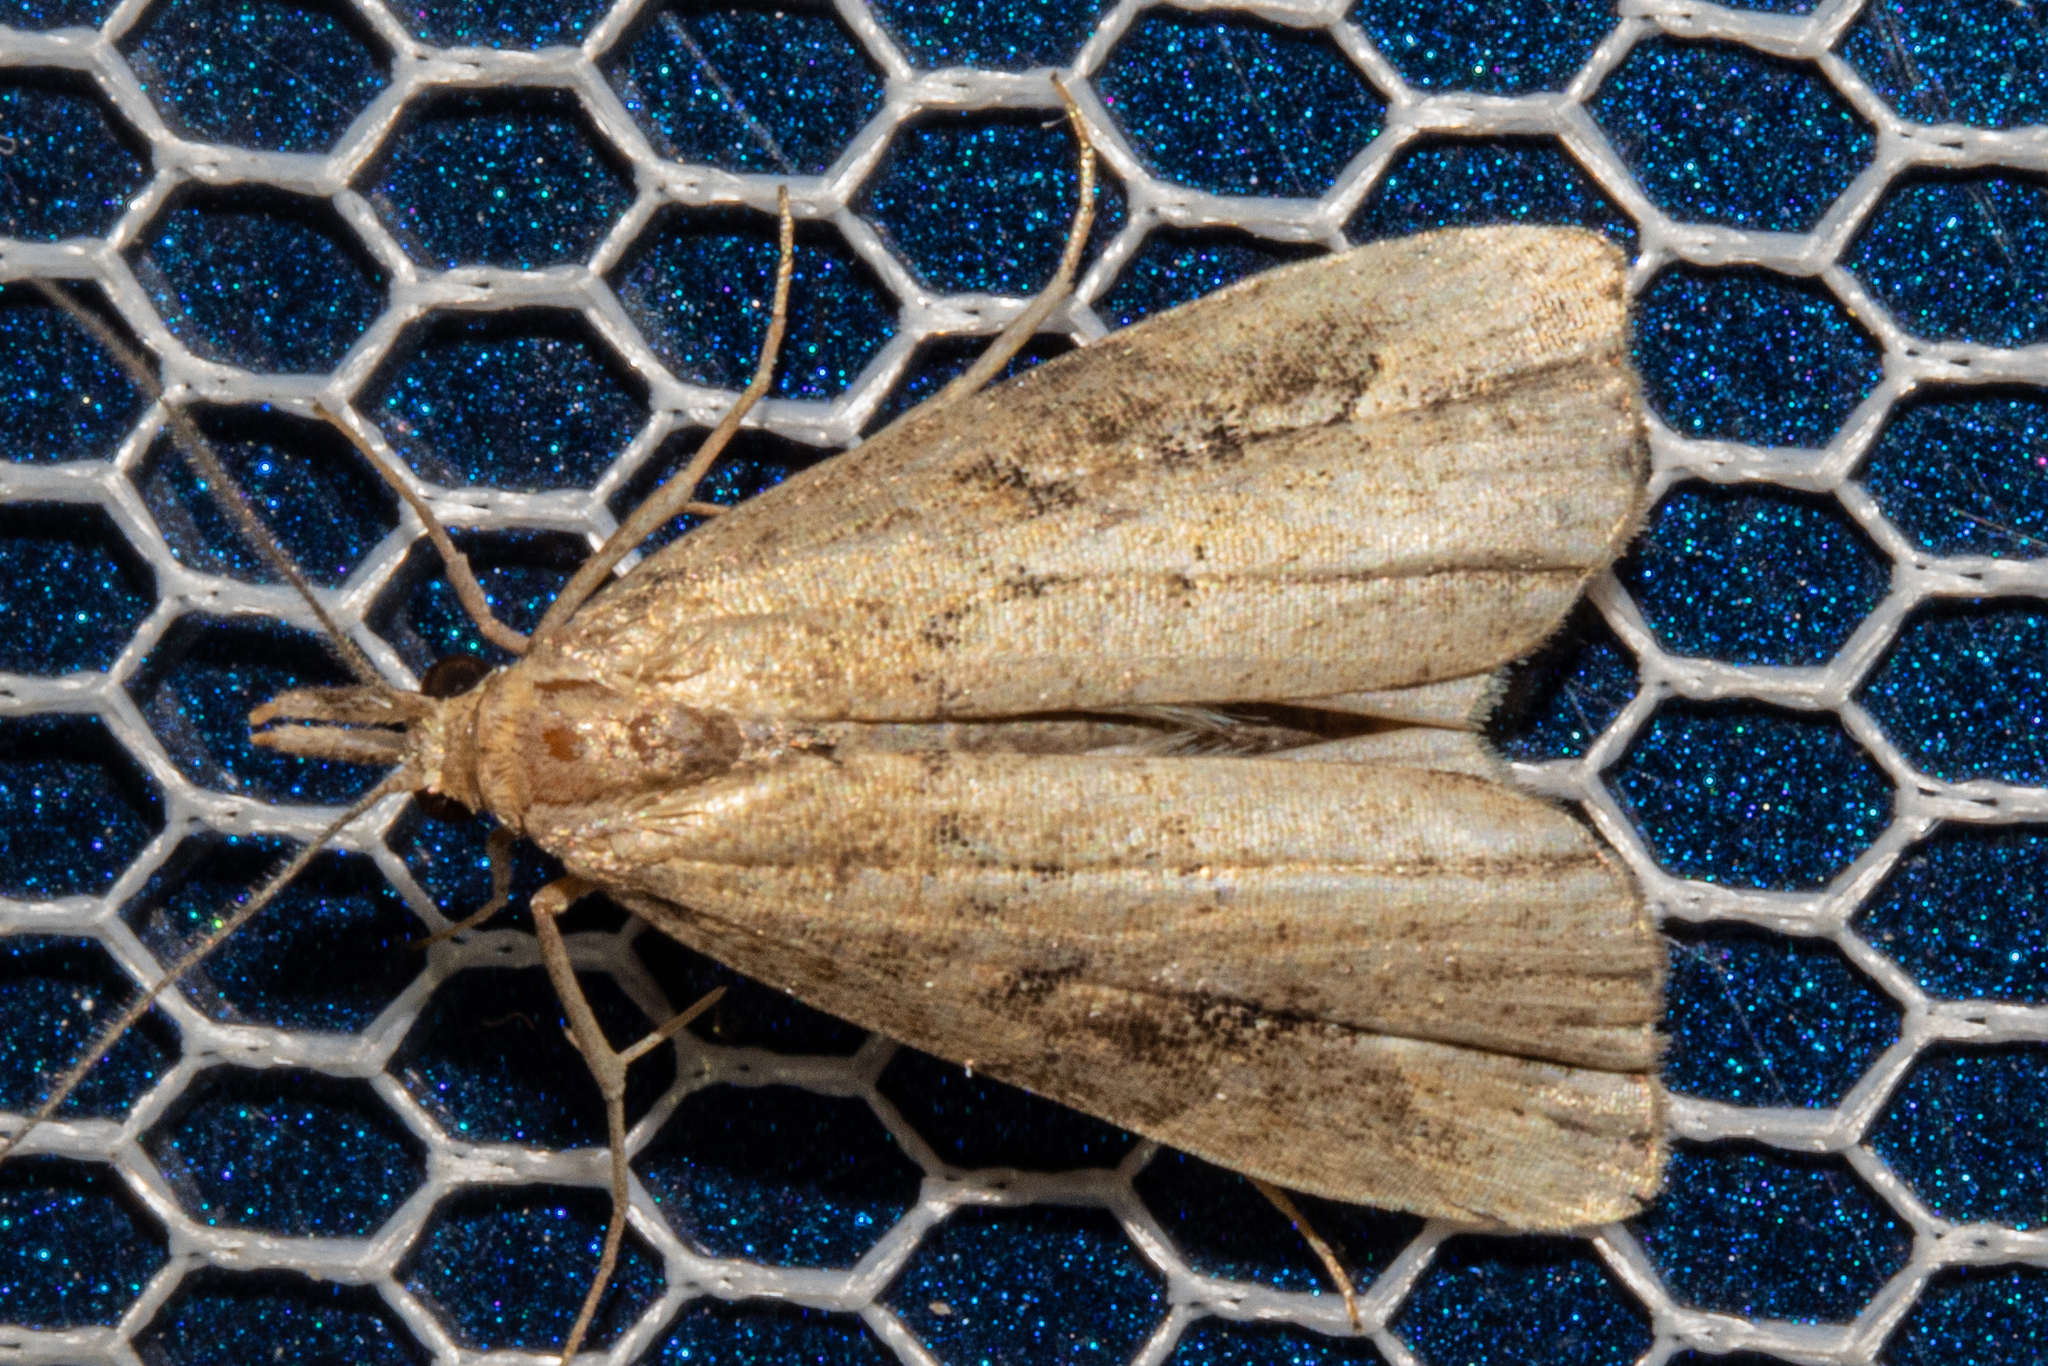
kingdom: Animalia
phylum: Arthropoda
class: Insecta
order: Lepidoptera
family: Erebidae
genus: Schrankia
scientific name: Schrankia costaestrigalis
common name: Pinion-streaked snout
